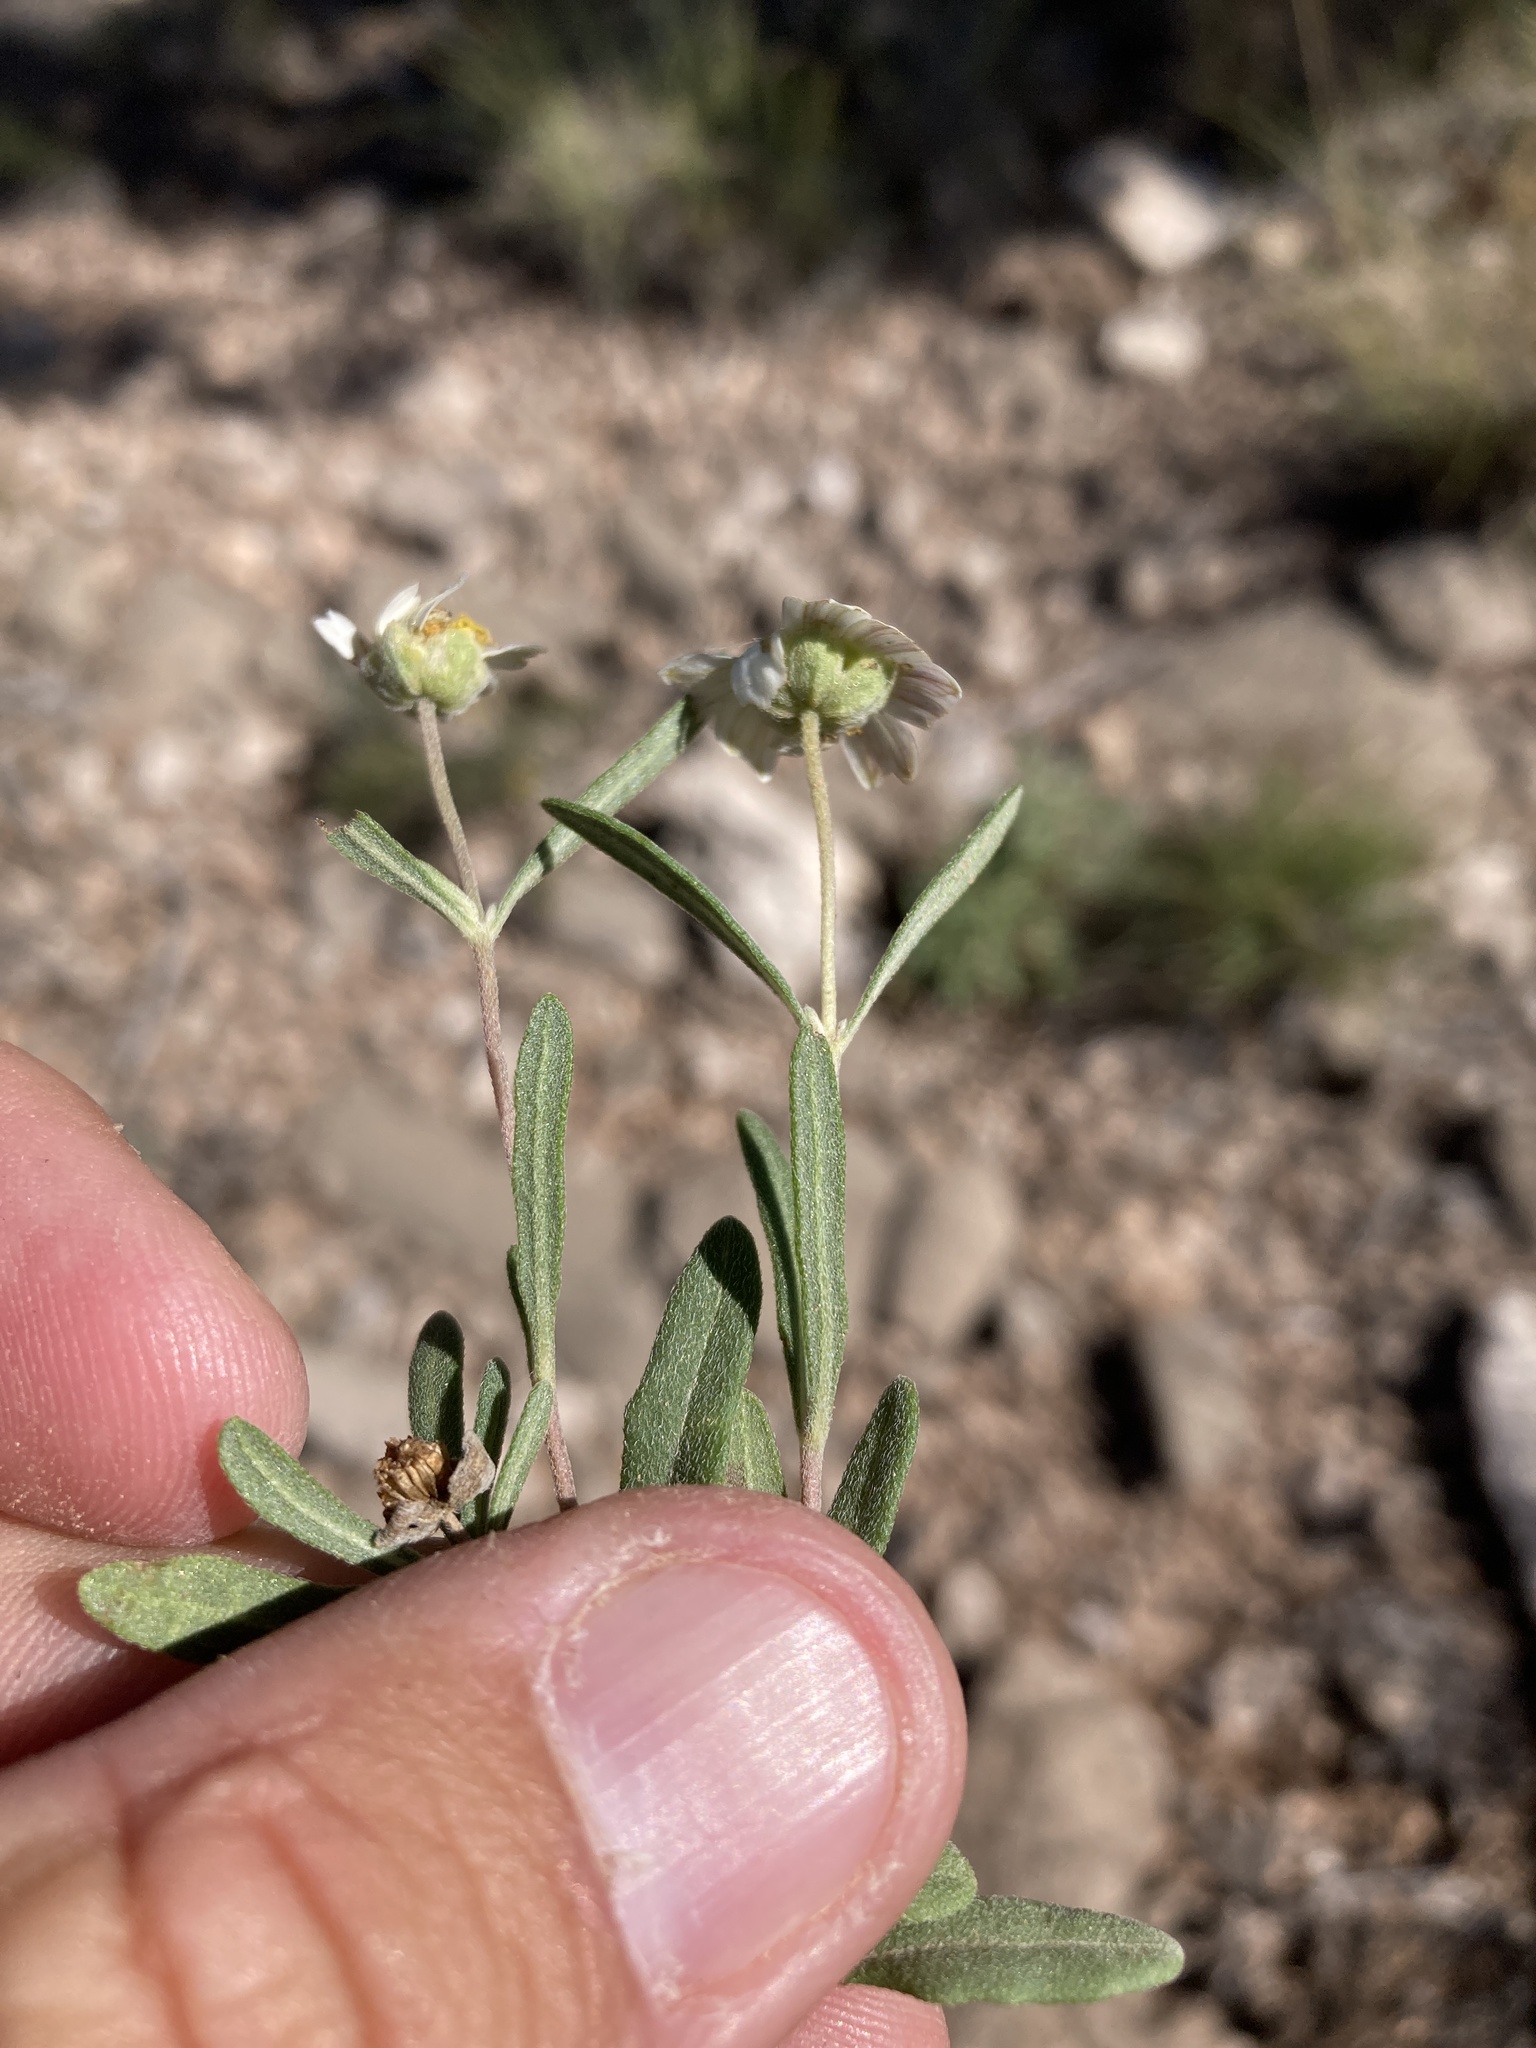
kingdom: Plantae
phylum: Tracheophyta
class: Magnoliopsida
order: Asterales
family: Asteraceae
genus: Melampodium
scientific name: Melampodium leucanthum
